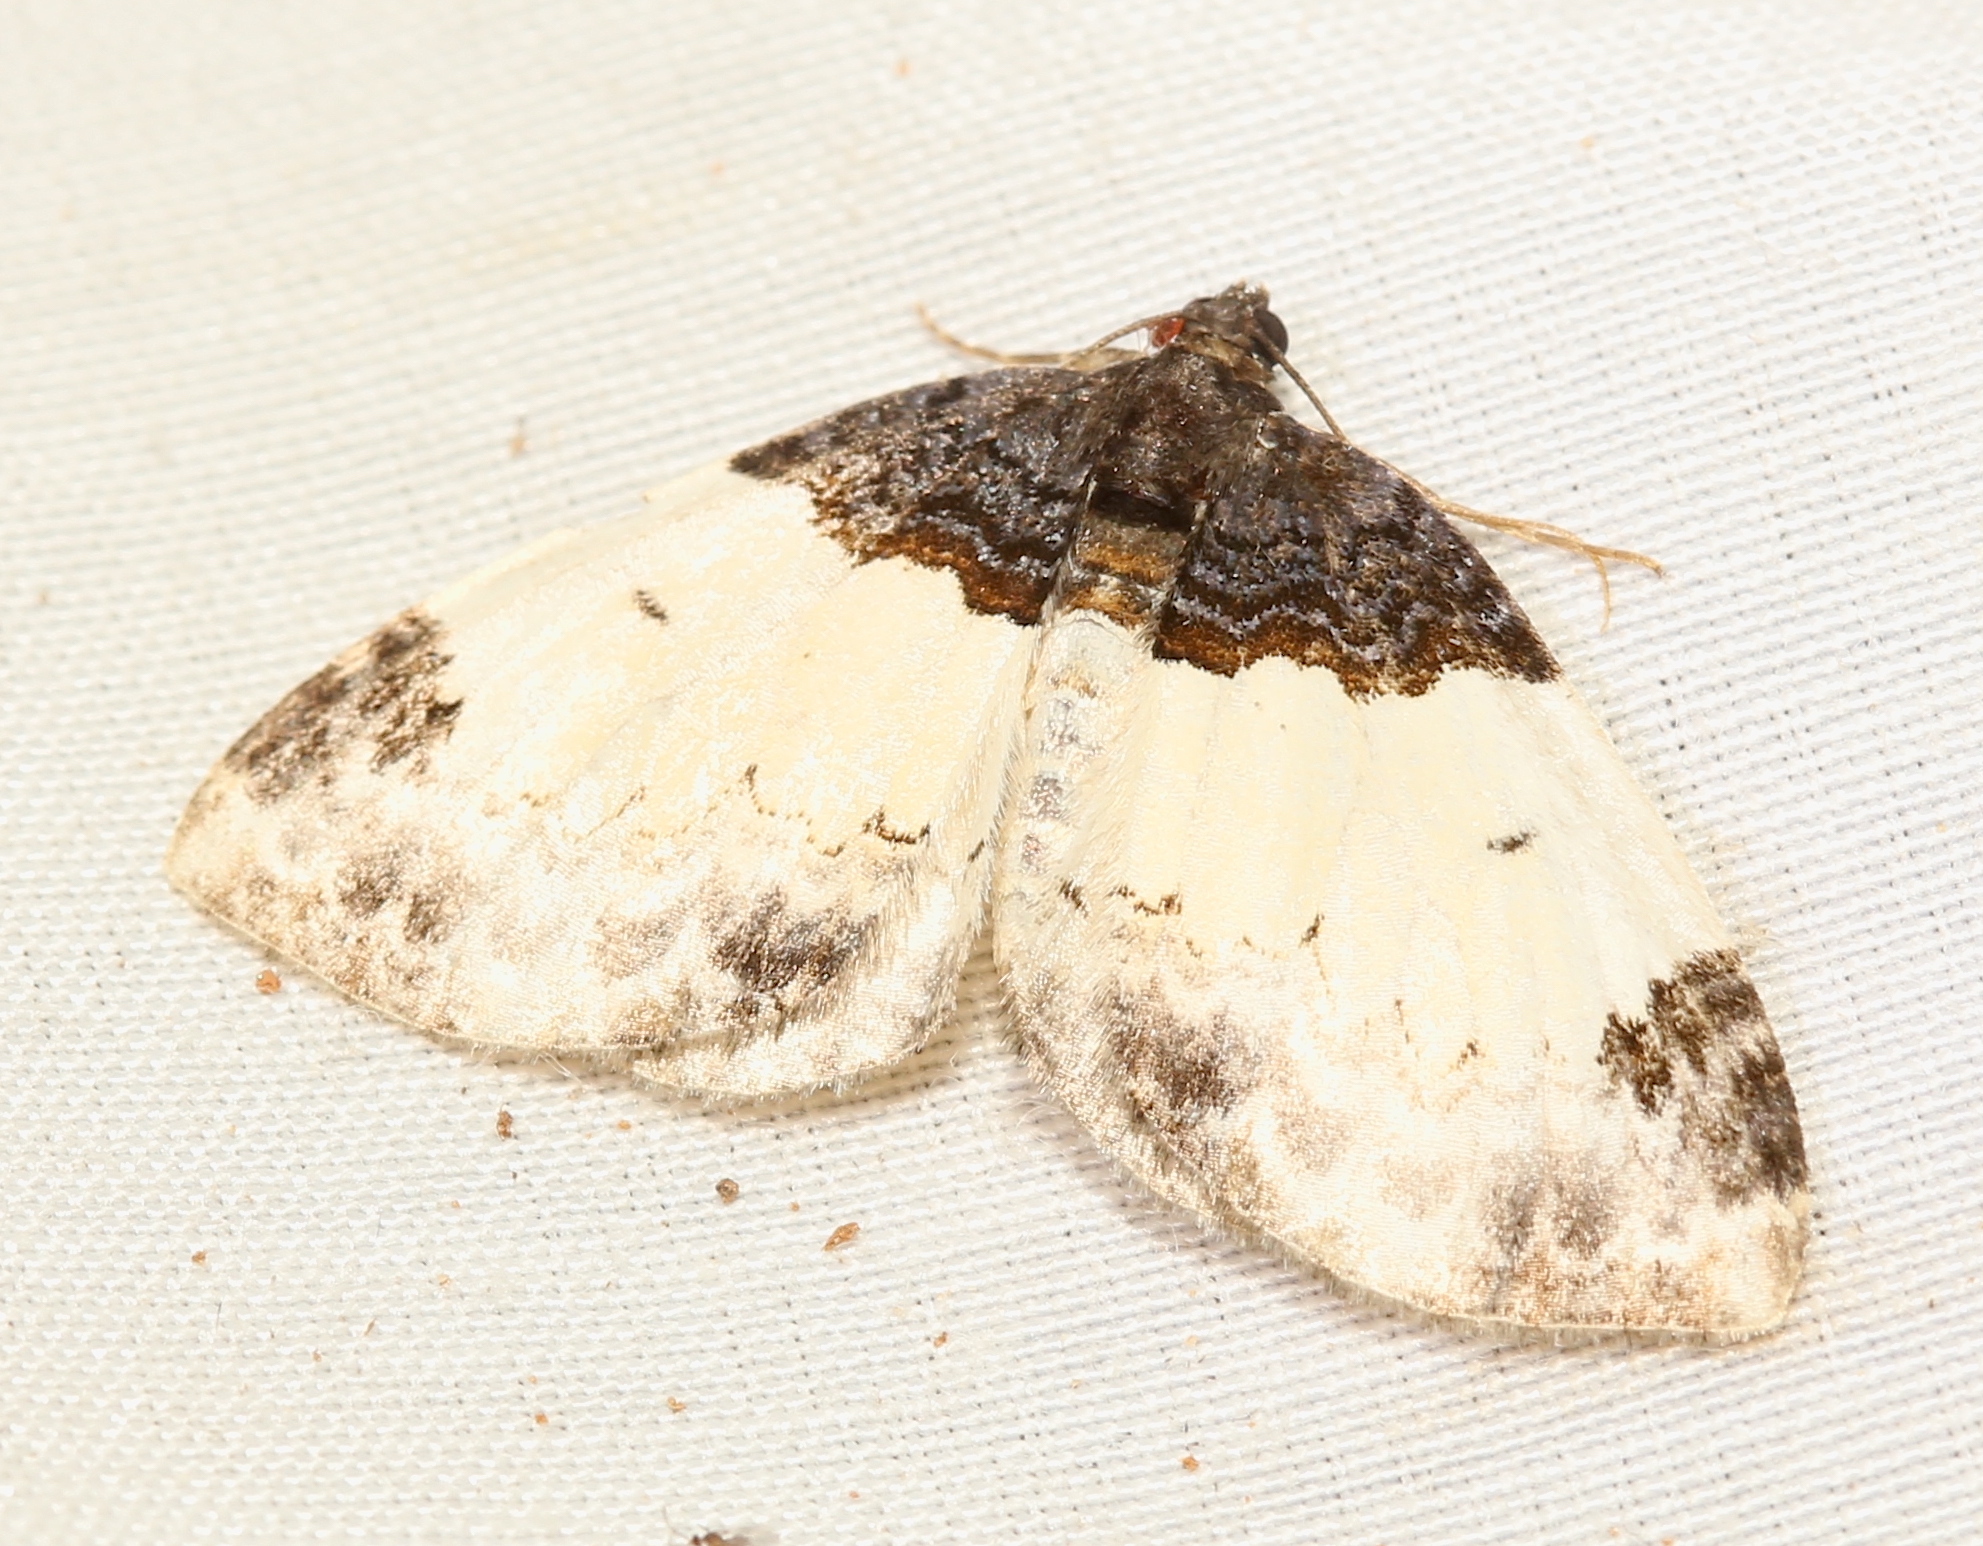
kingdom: Animalia
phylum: Arthropoda
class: Insecta
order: Lepidoptera
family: Geometridae
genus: Mesoleuca
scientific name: Mesoleuca ruficillata
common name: White-ribboned carpet moth
